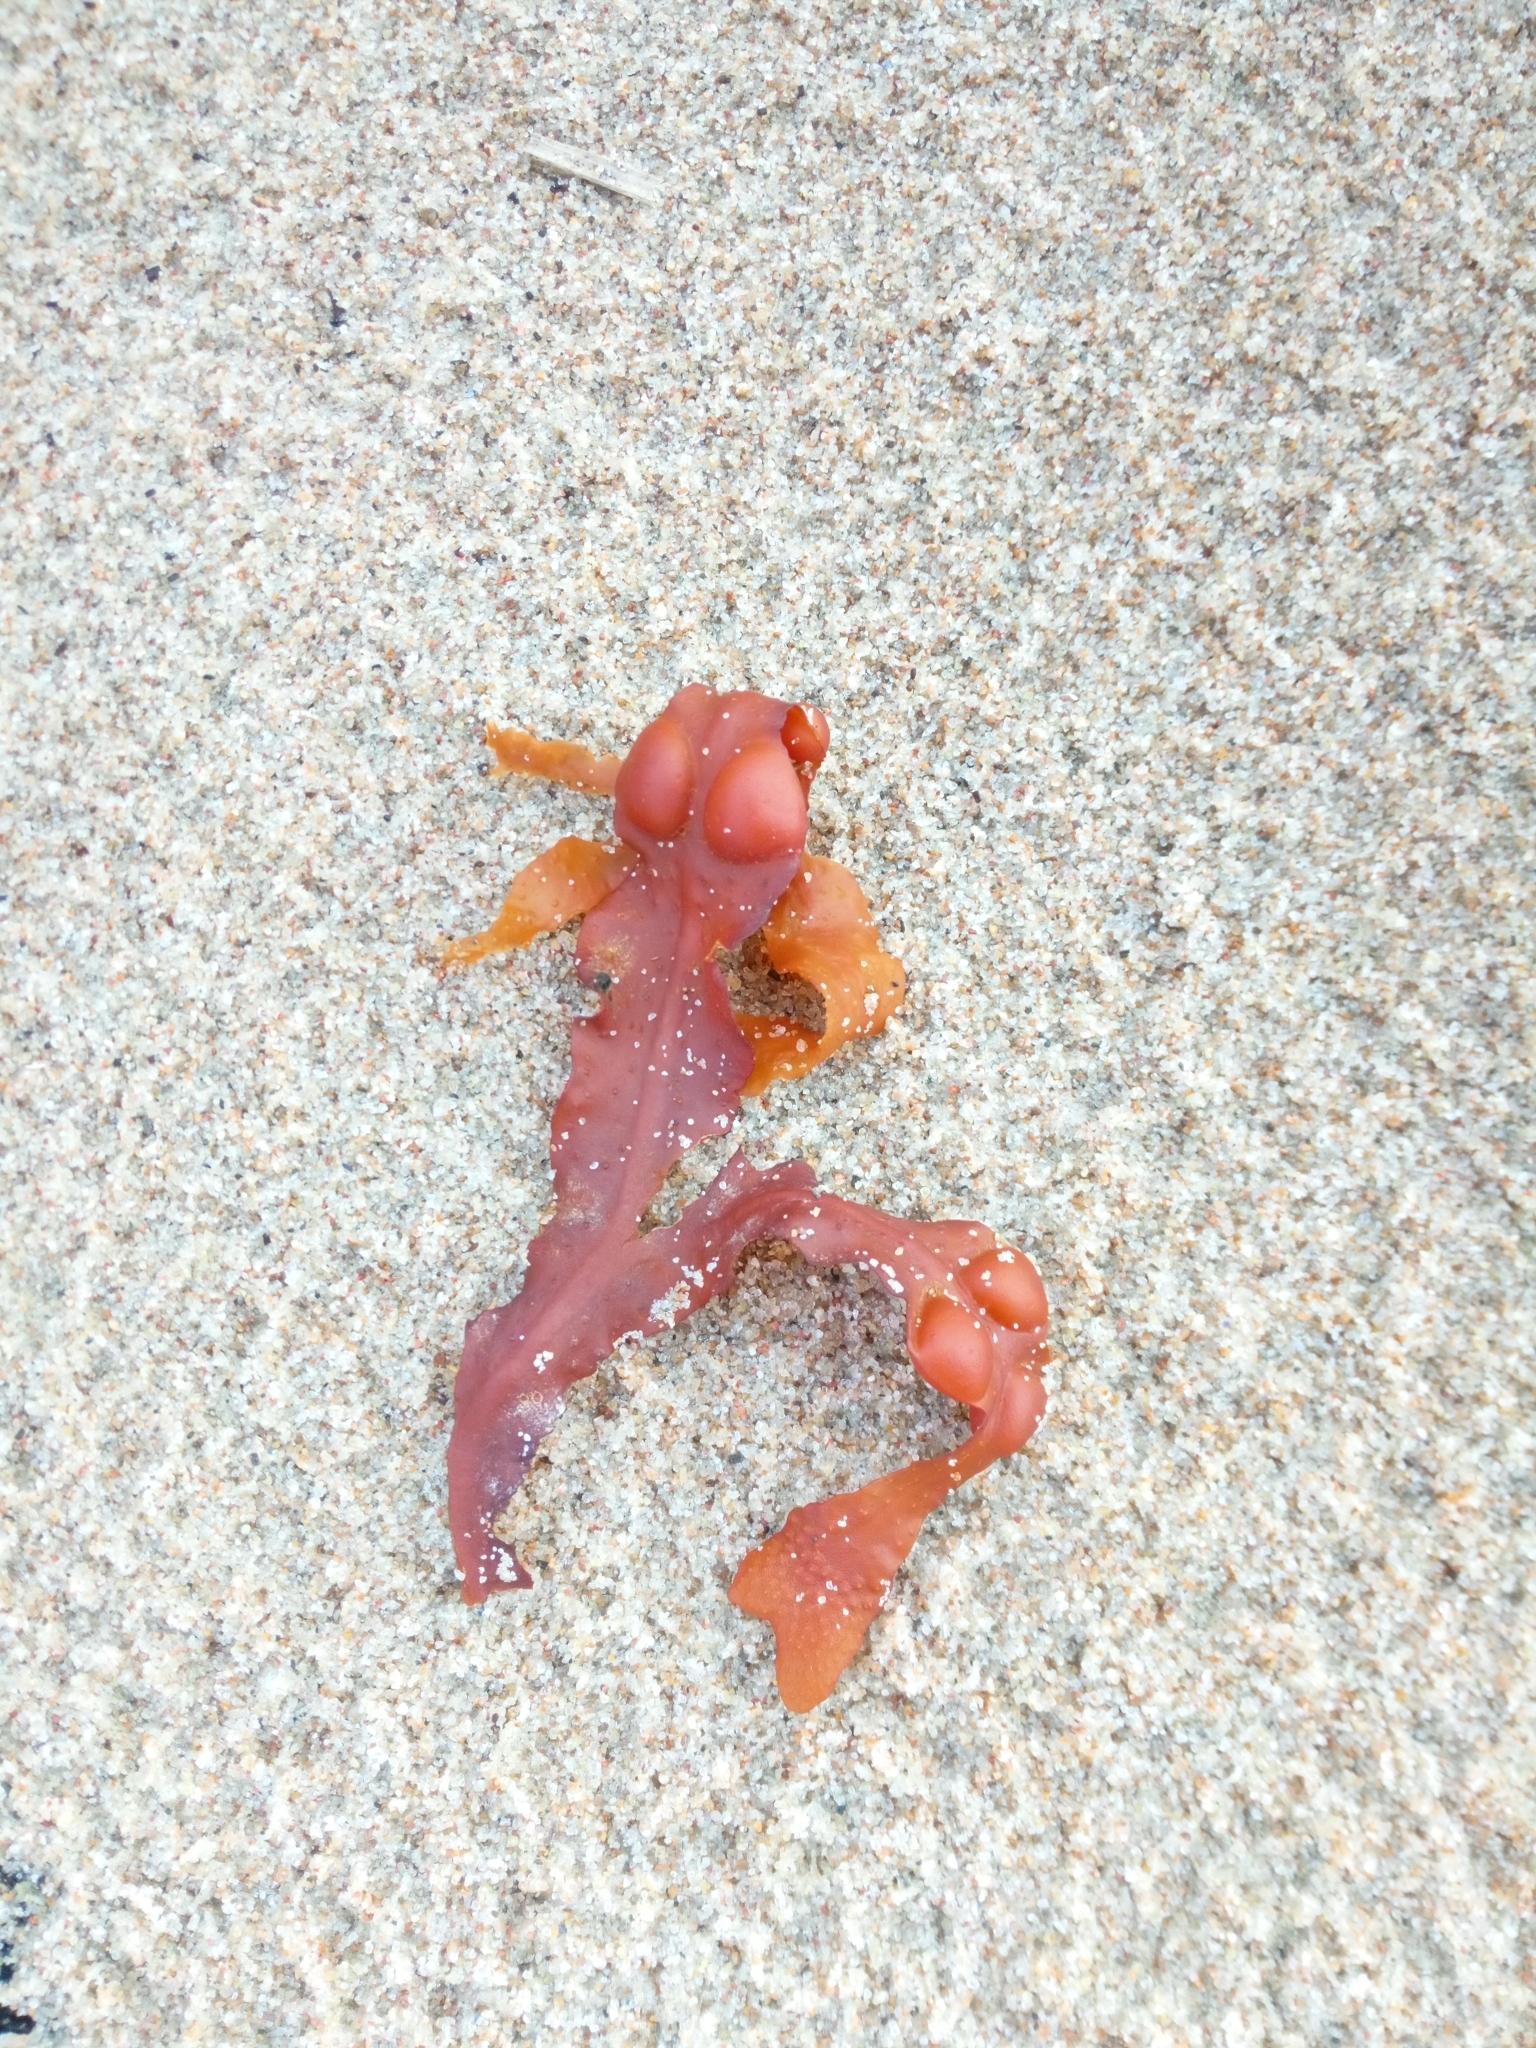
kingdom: Chromista
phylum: Ochrophyta
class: Phaeophyceae
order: Fucales
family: Fucaceae
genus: Fucus
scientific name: Fucus vesiculosus
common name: Bladder wrack
